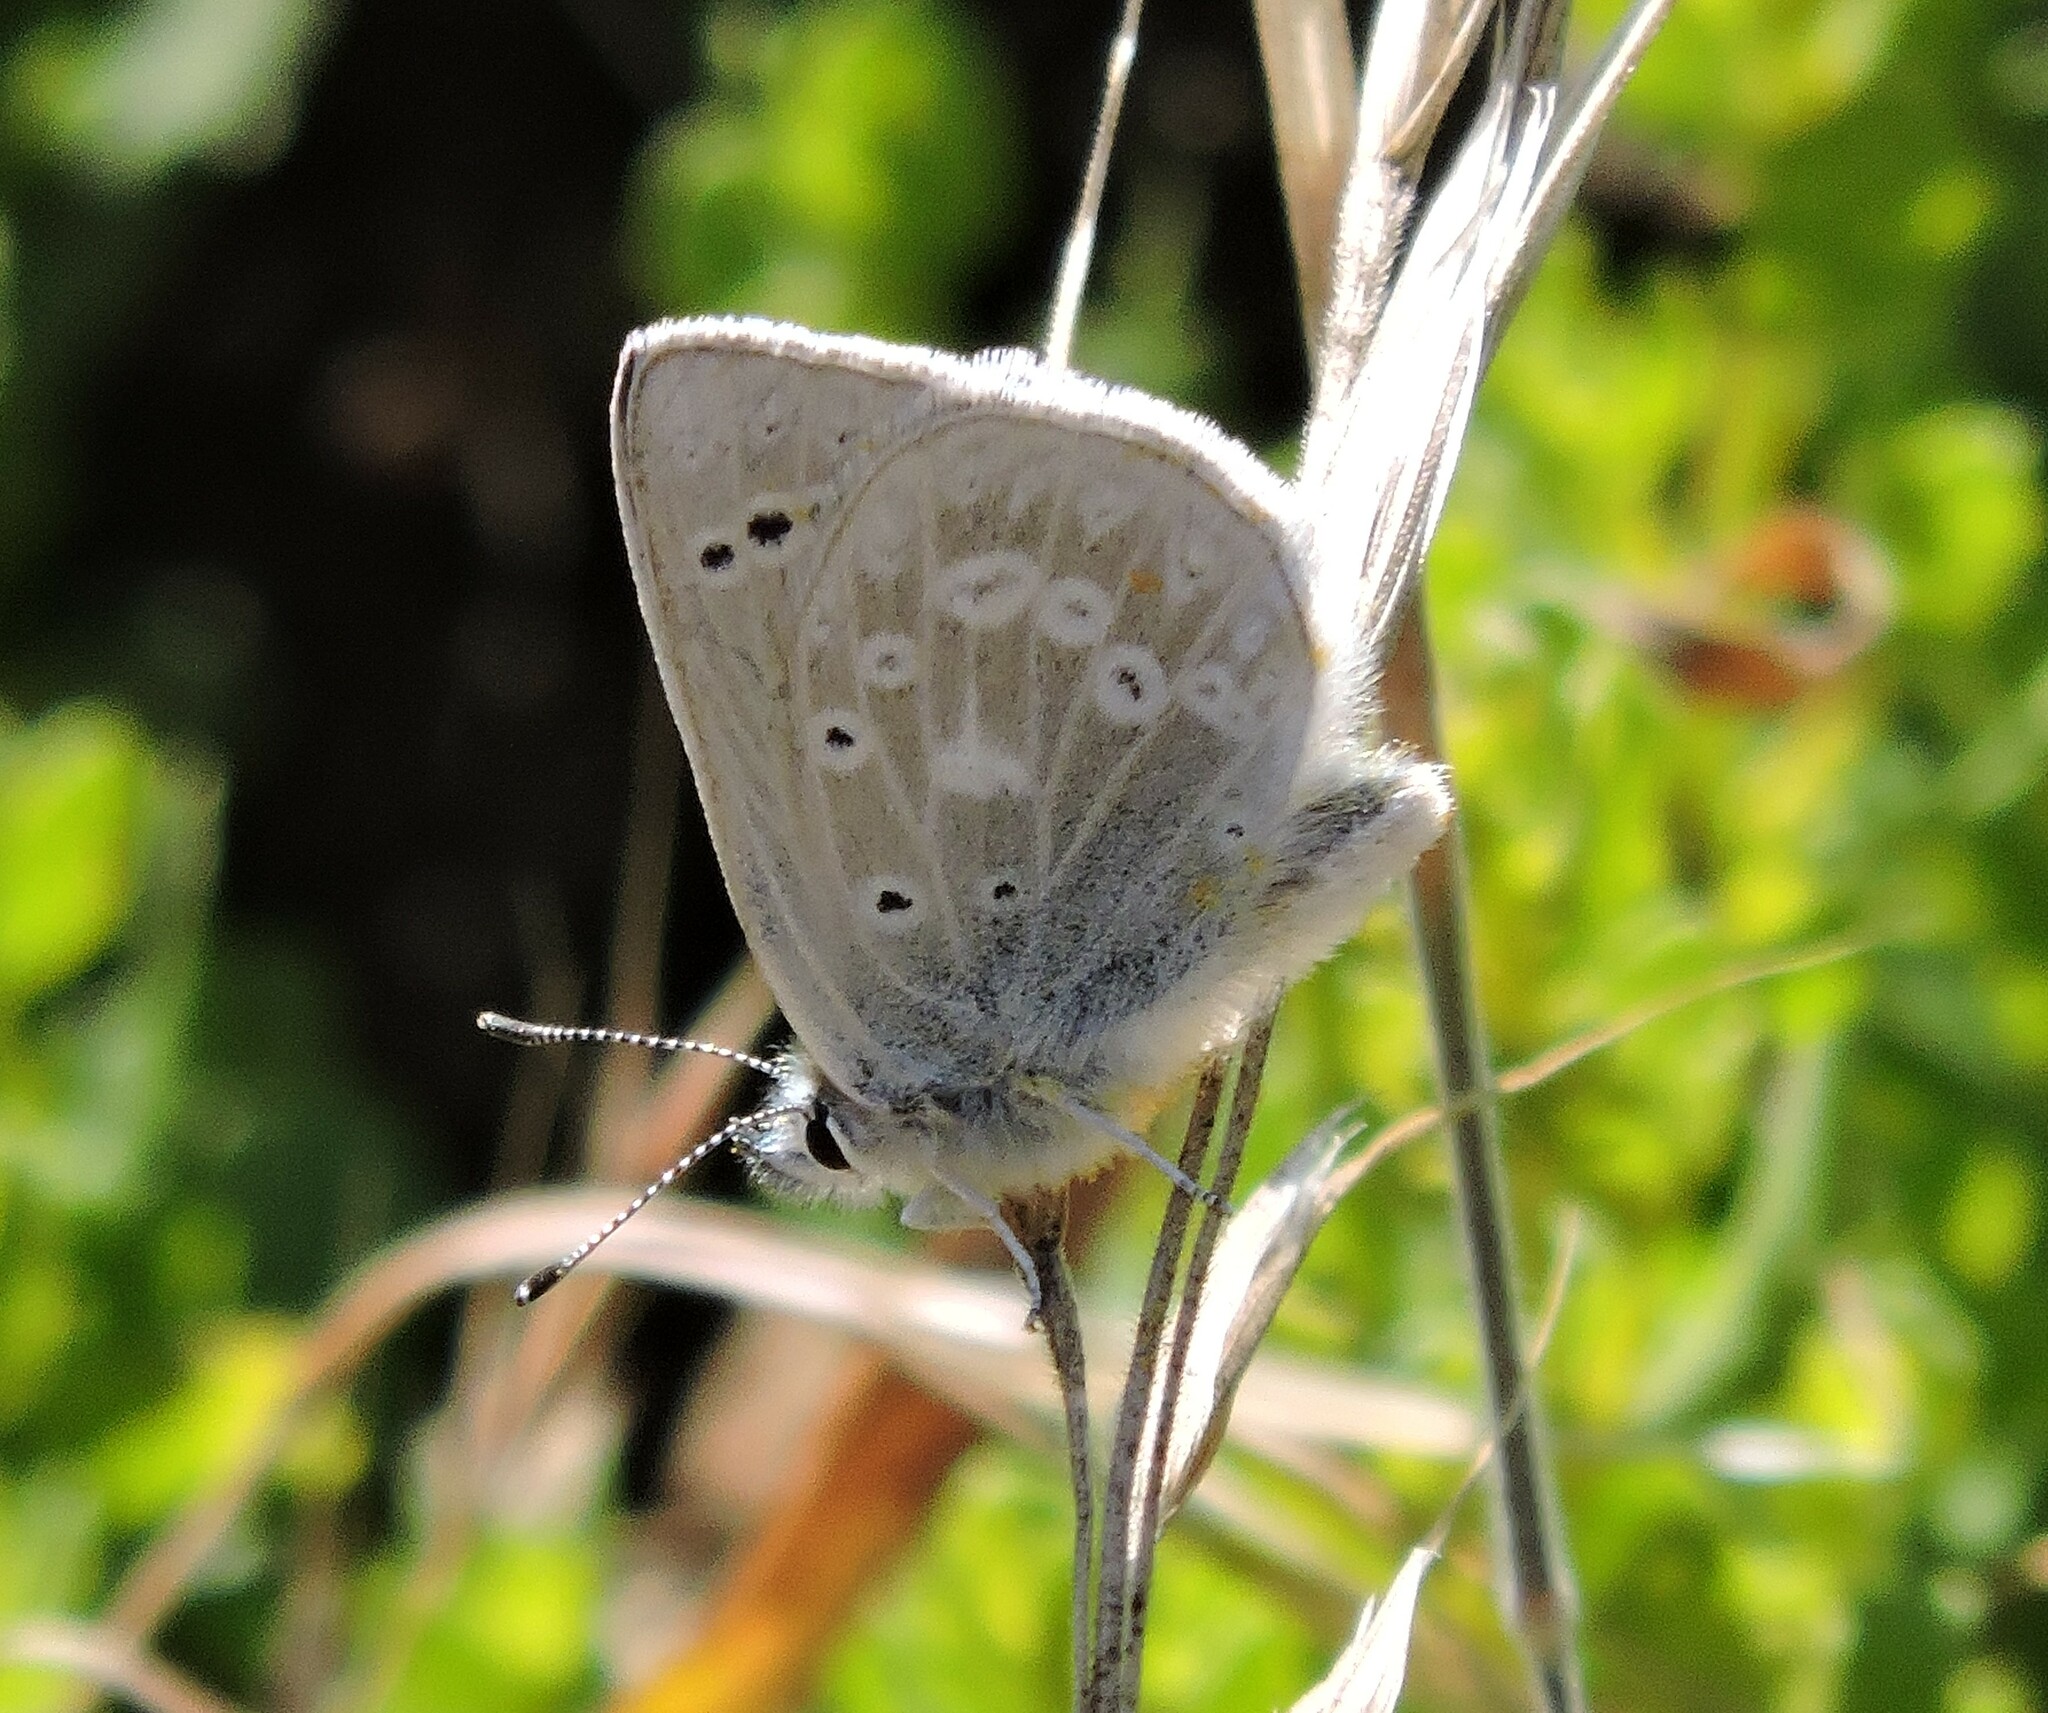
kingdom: Animalia
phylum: Arthropoda
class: Insecta
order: Lepidoptera
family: Lycaenidae
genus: Icaricia
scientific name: Icaricia icarioides
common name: Boisduval's blue
